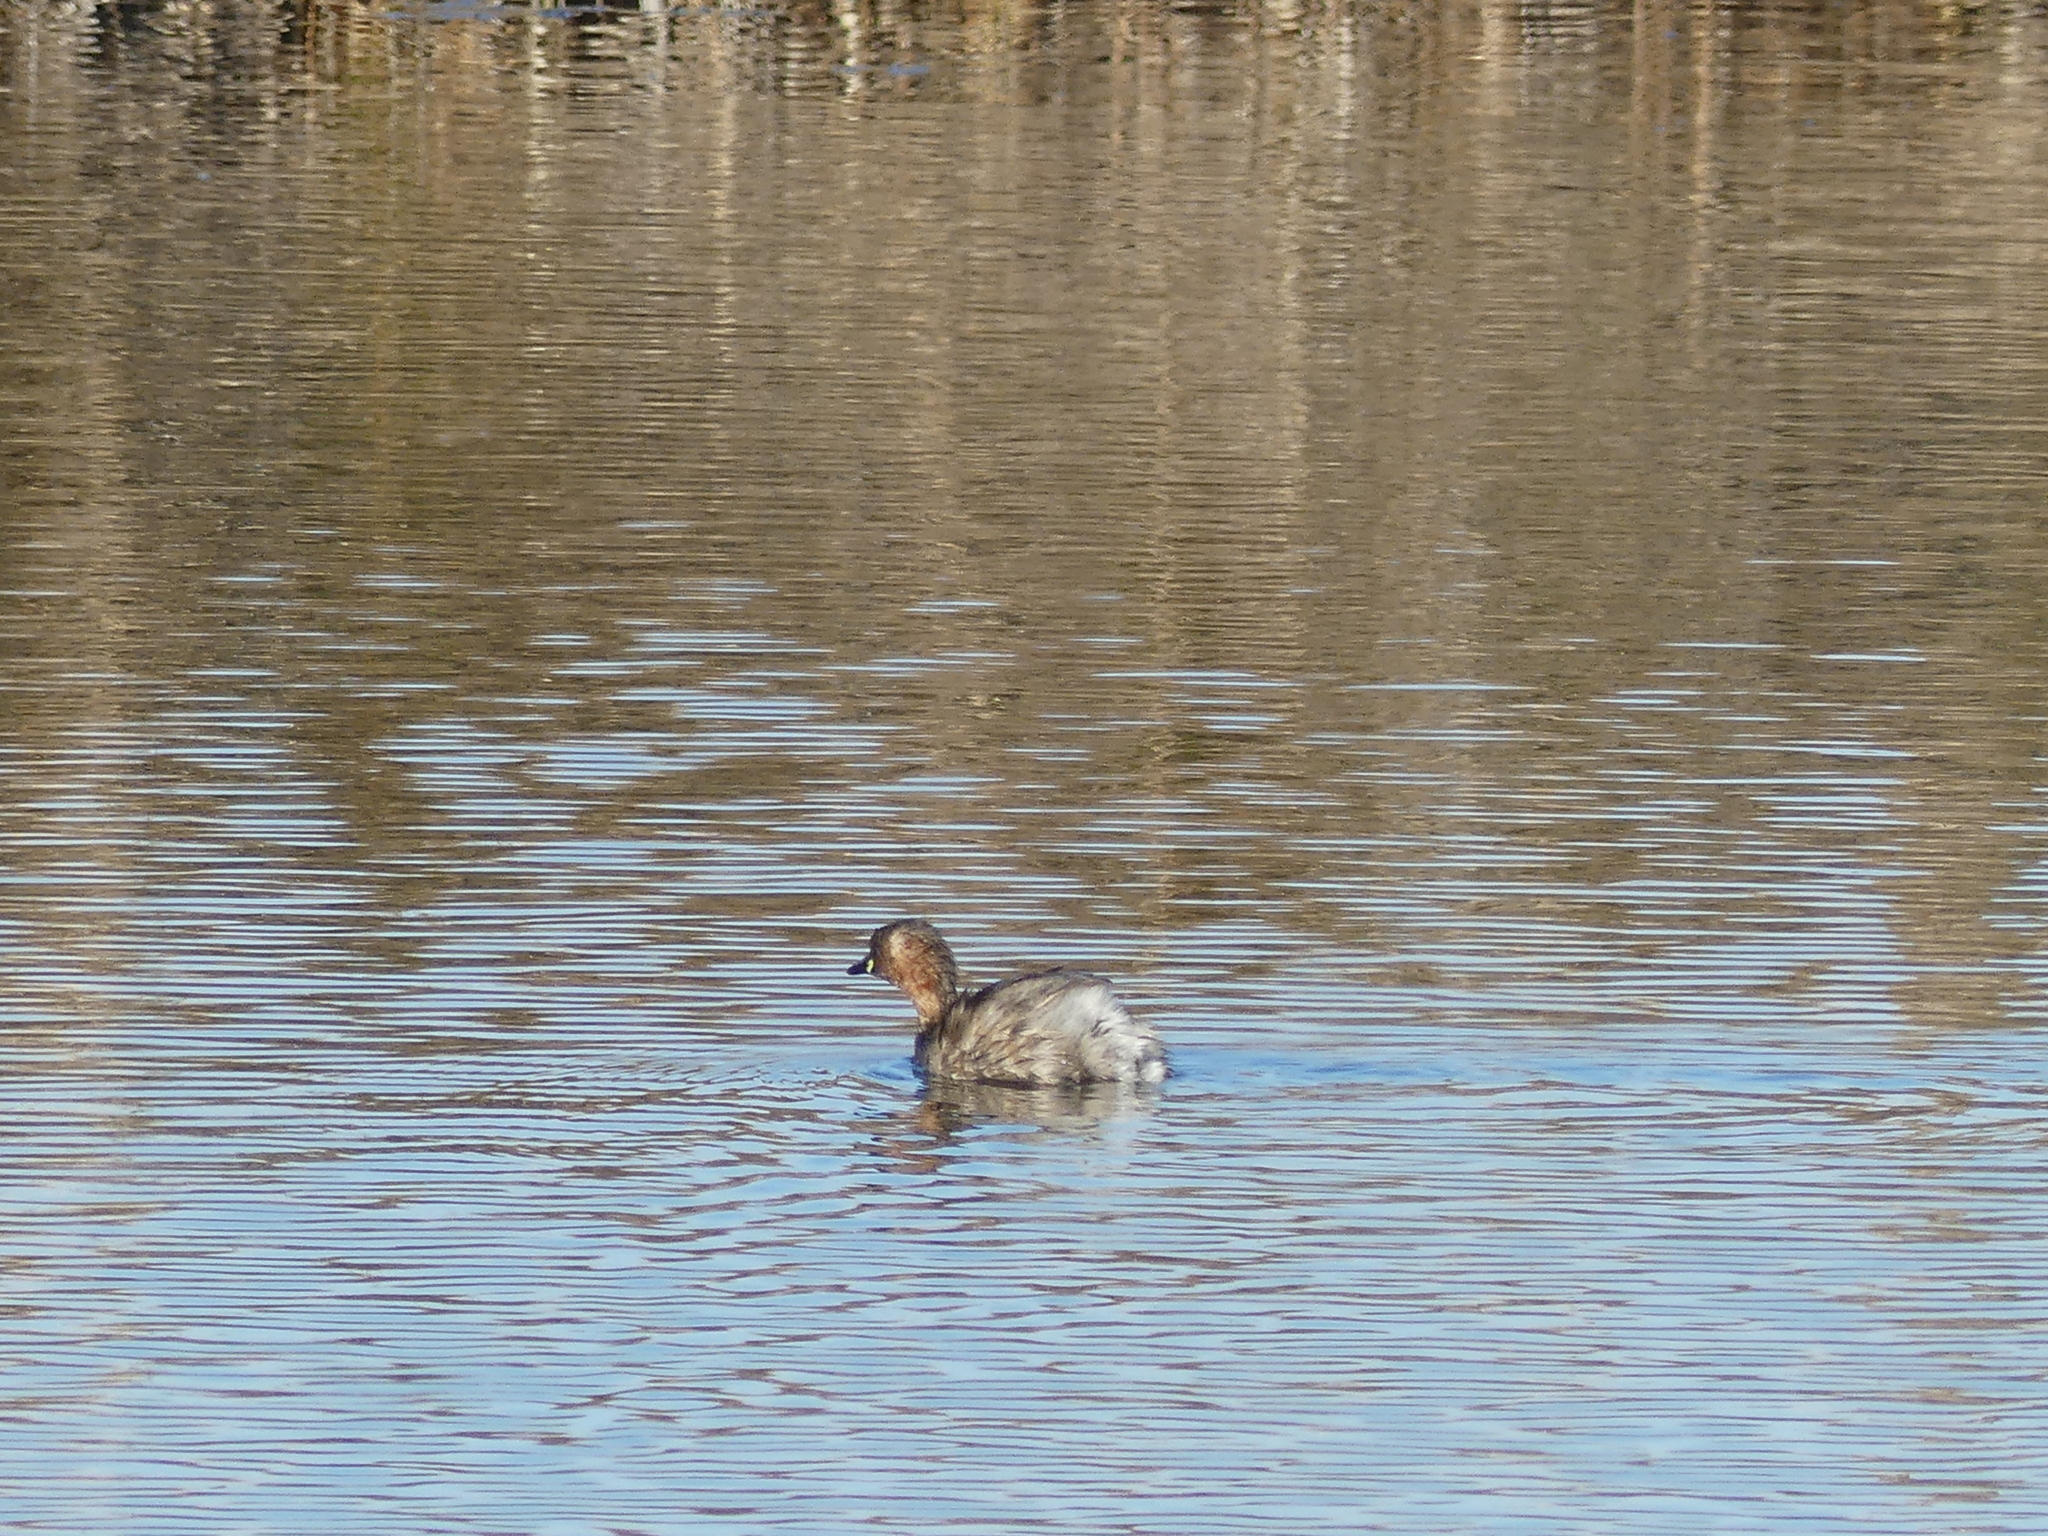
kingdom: Animalia
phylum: Chordata
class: Aves
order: Podicipediformes
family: Podicipedidae
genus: Tachybaptus
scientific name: Tachybaptus ruficollis
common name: Little grebe
